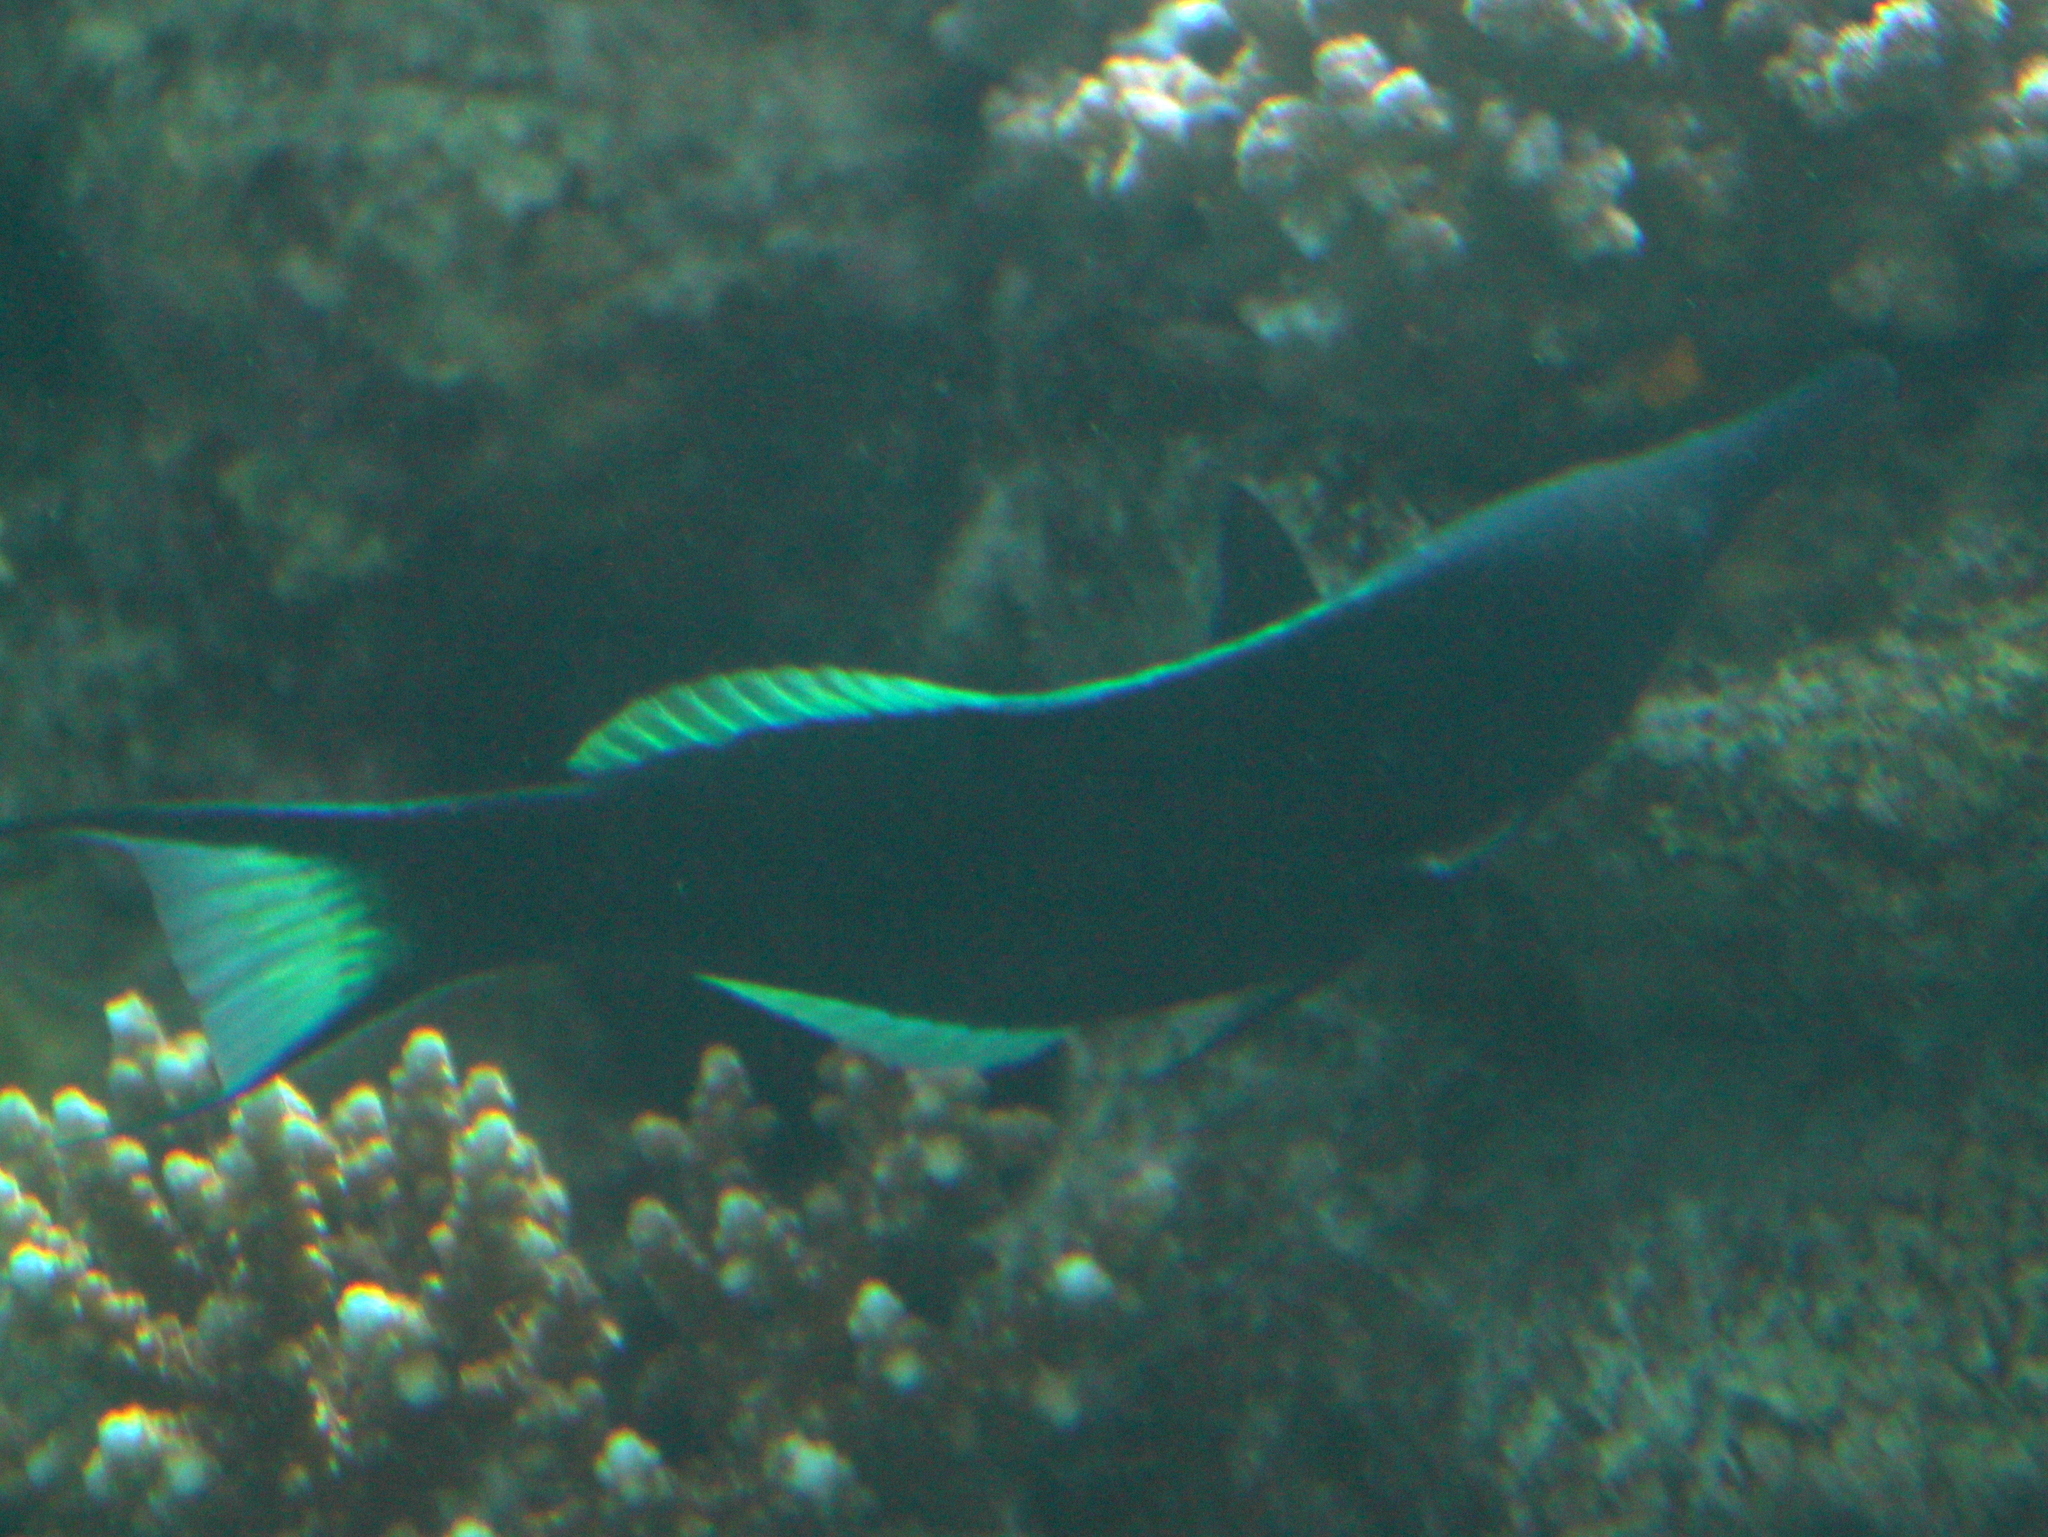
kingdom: Animalia
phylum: Chordata
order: Perciformes
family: Labridae
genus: Gomphosus
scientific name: Gomphosus klunzingeri
